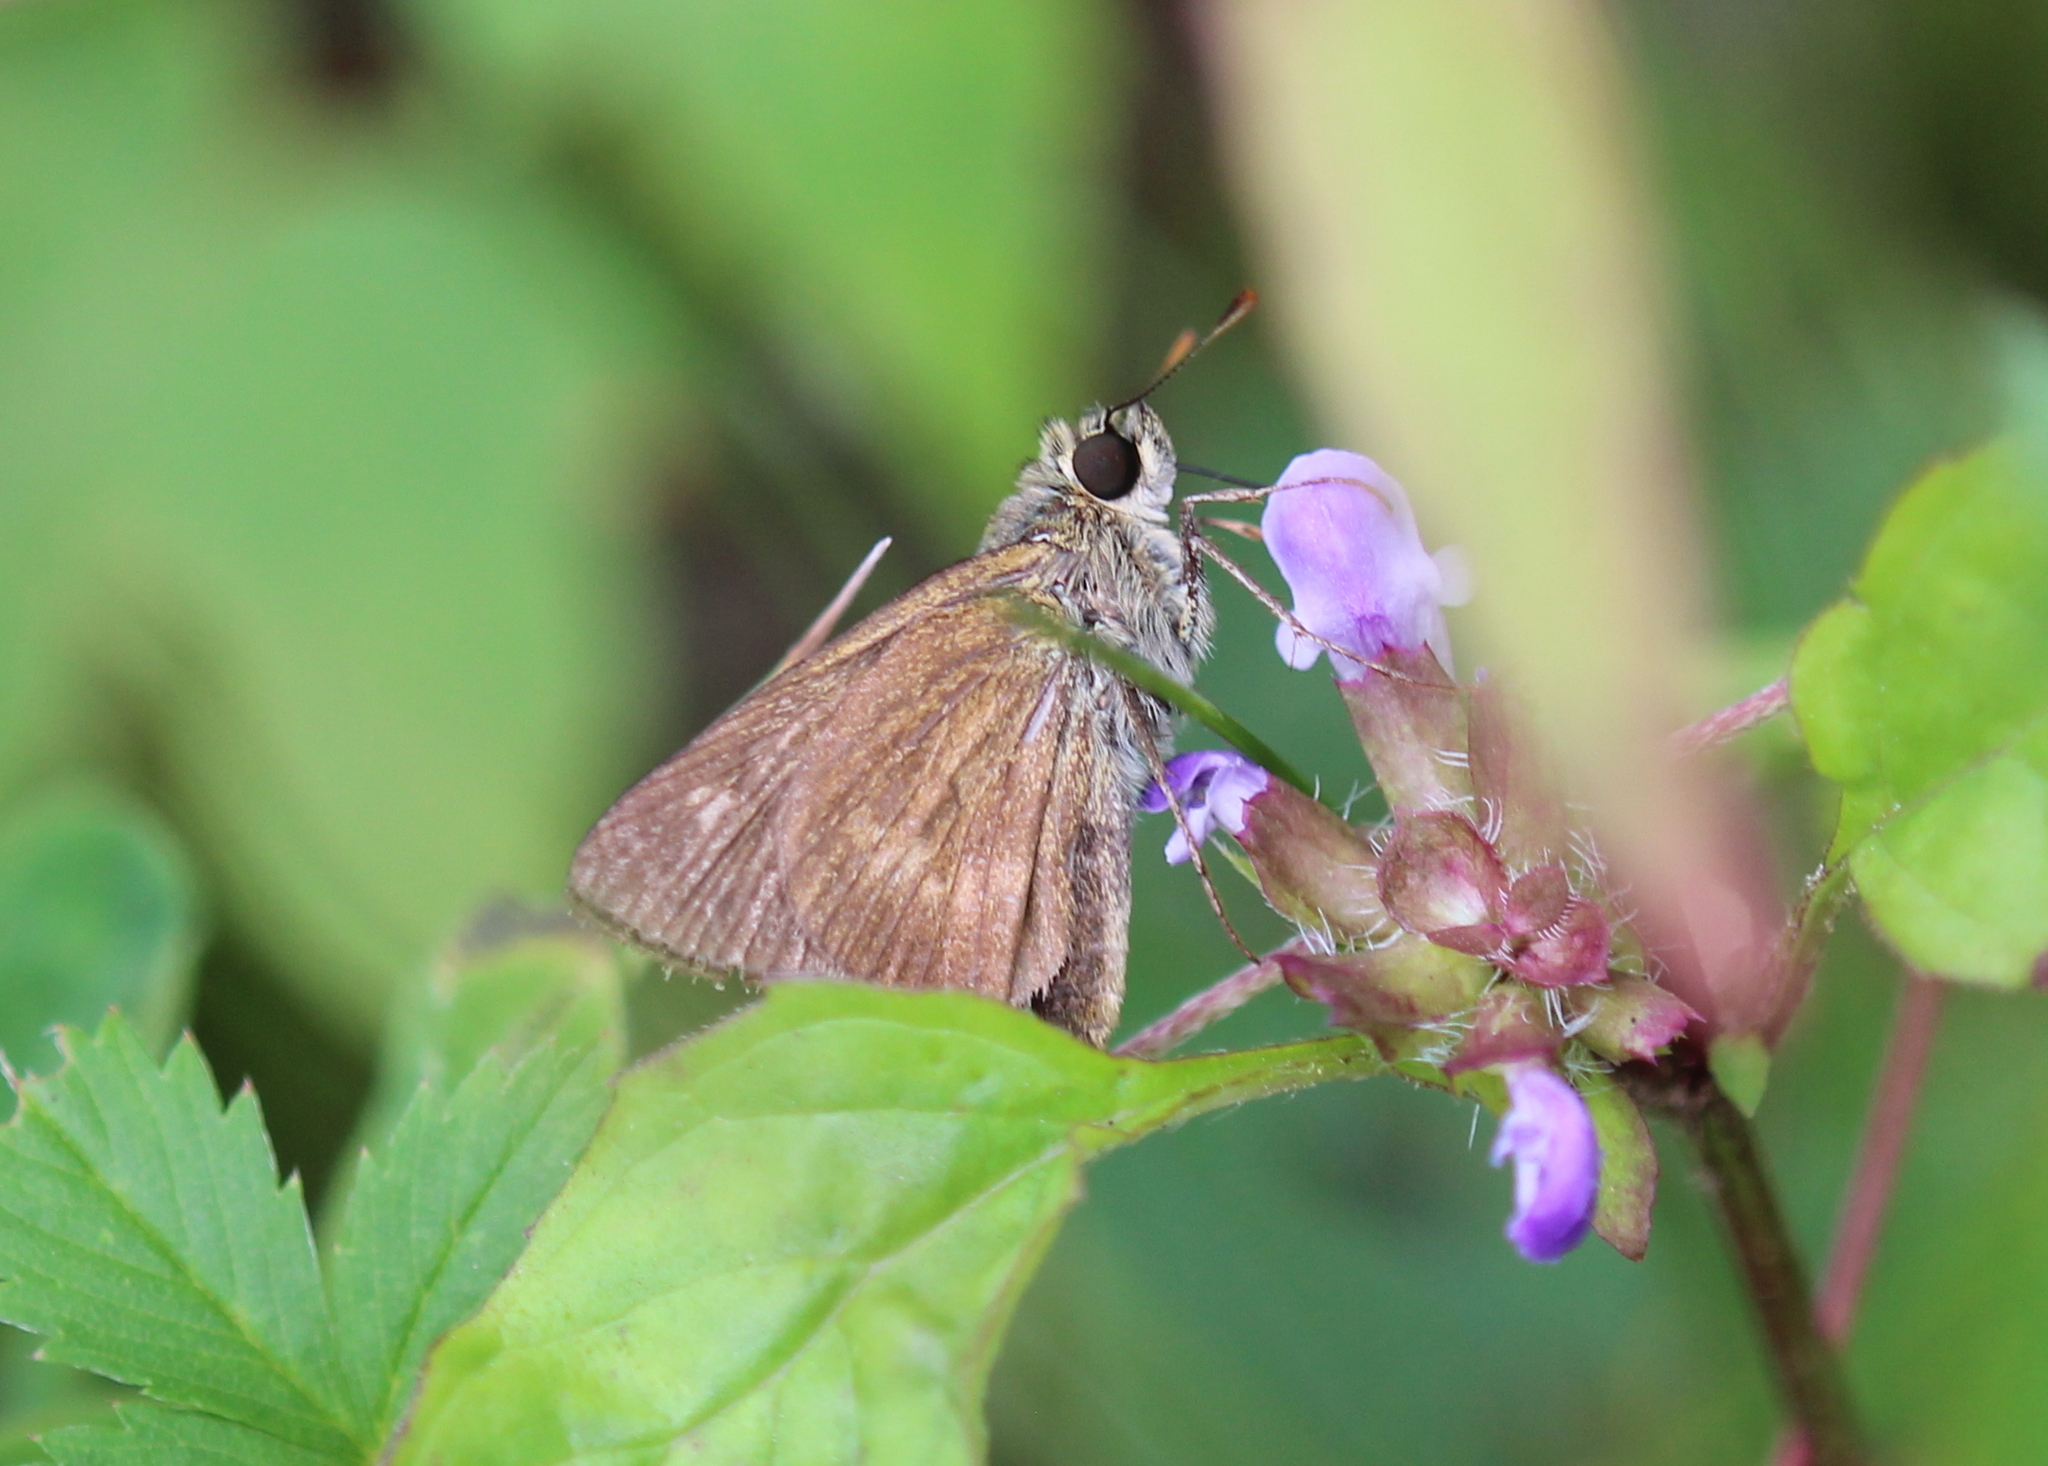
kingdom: Animalia
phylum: Arthropoda
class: Insecta
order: Lepidoptera
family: Hesperiidae
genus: Polites
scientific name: Polites egeremet
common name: Northern broken-dash
